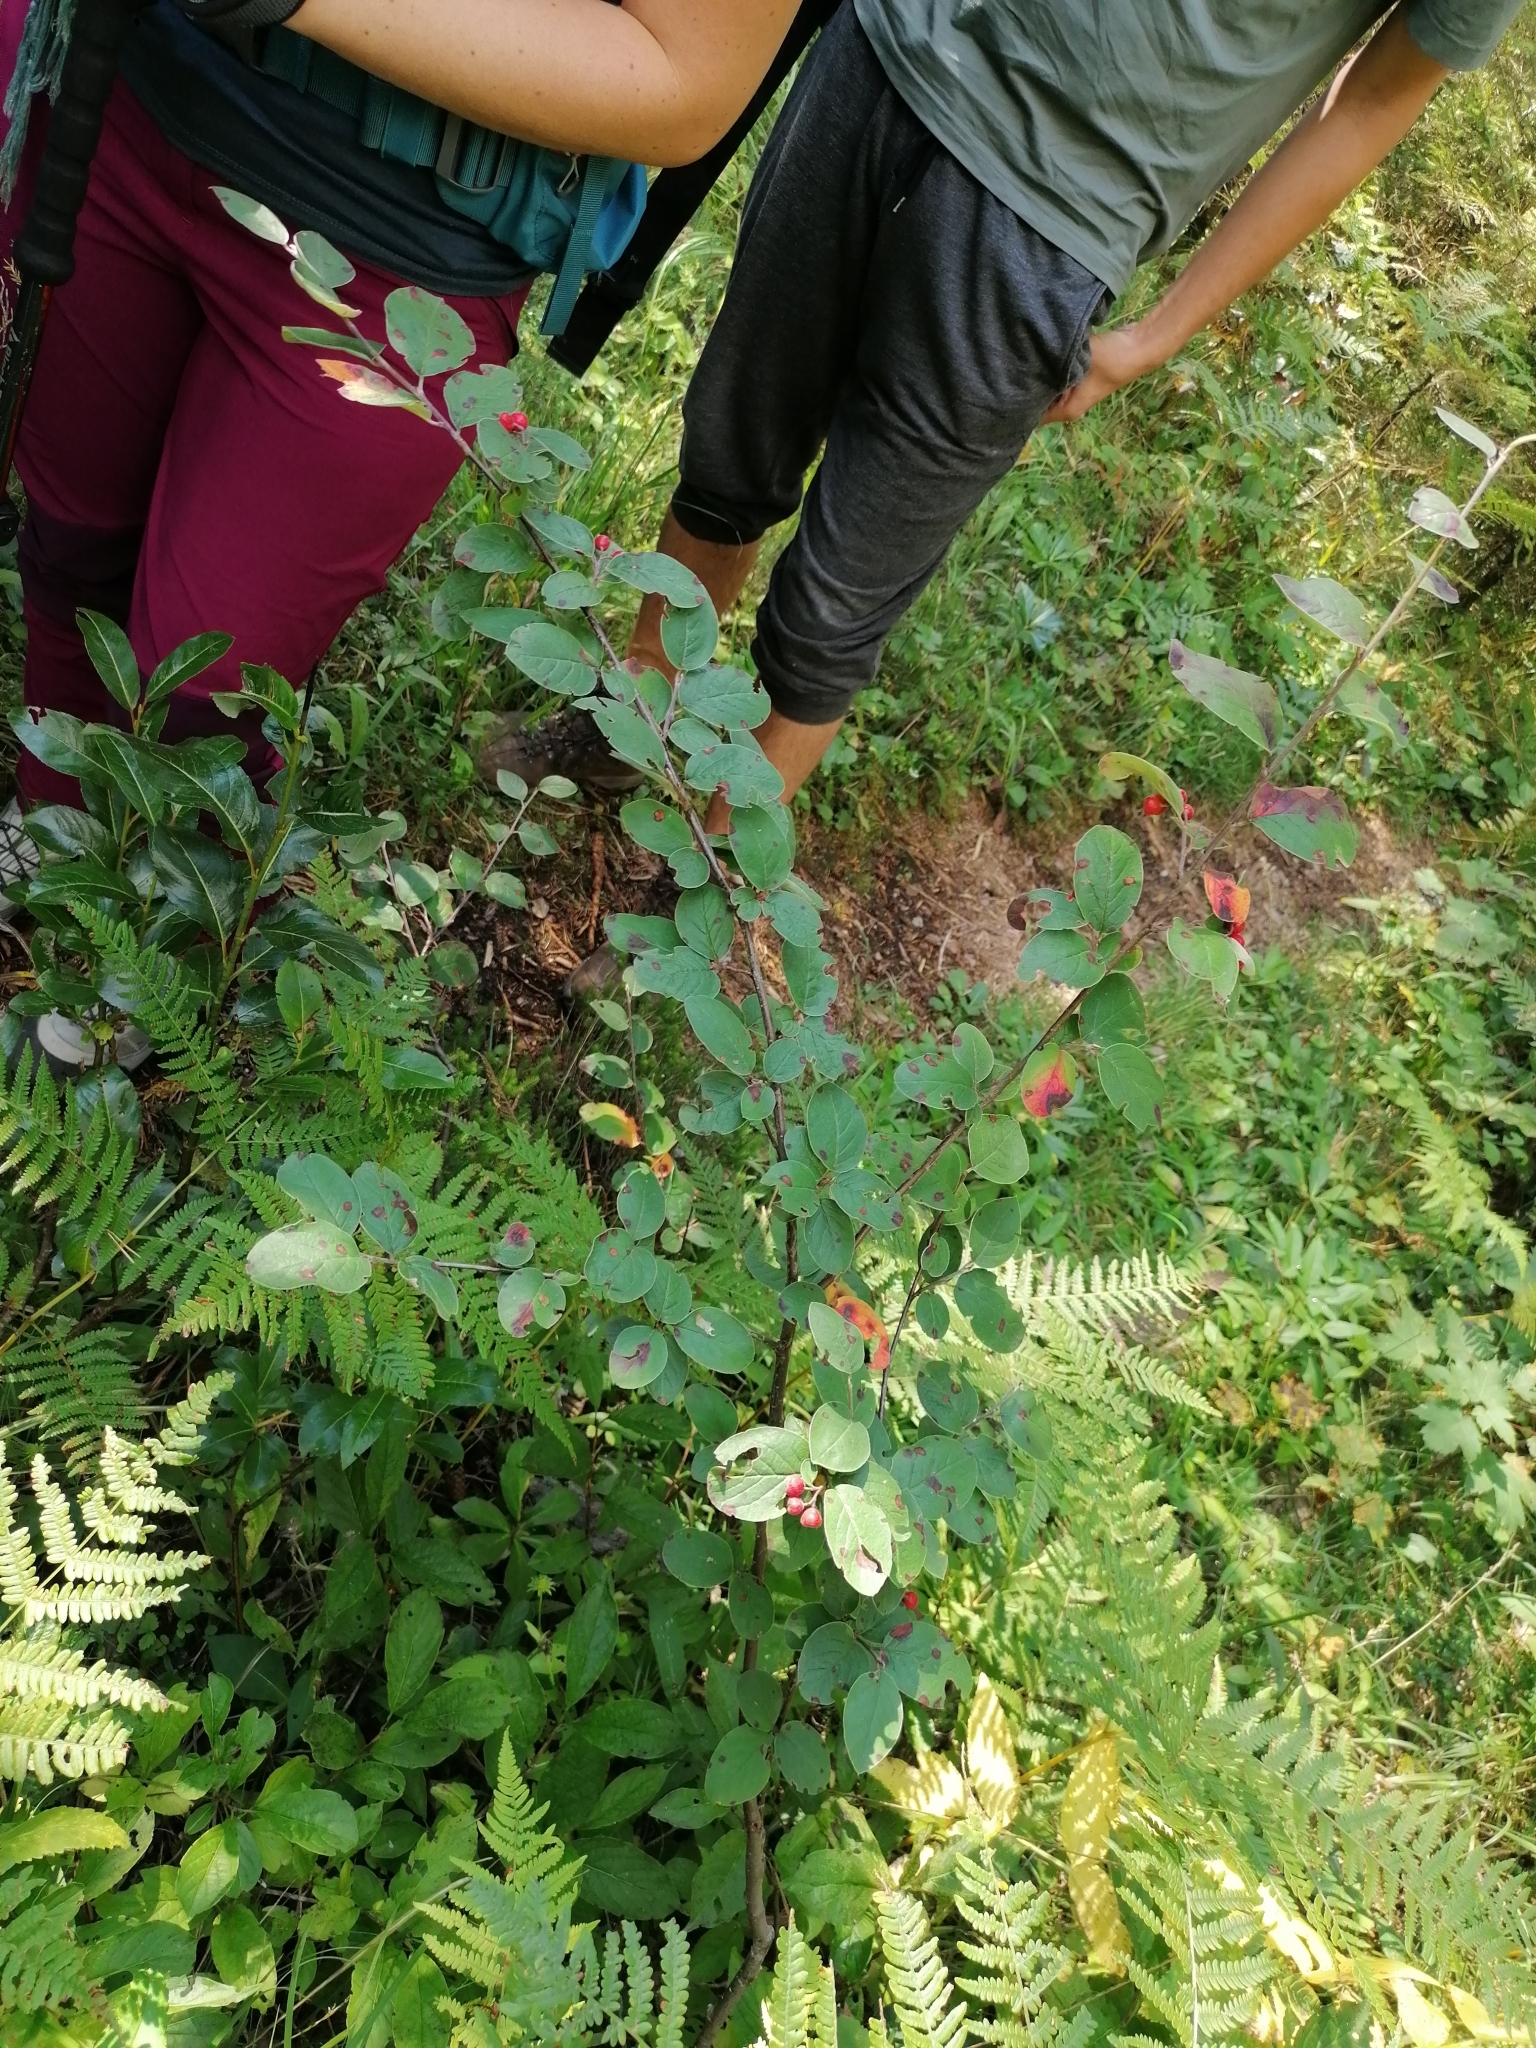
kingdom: Plantae
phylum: Tracheophyta
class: Magnoliopsida
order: Rosales
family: Rosaceae
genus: Cotoneaster
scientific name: Cotoneaster tomentosus
